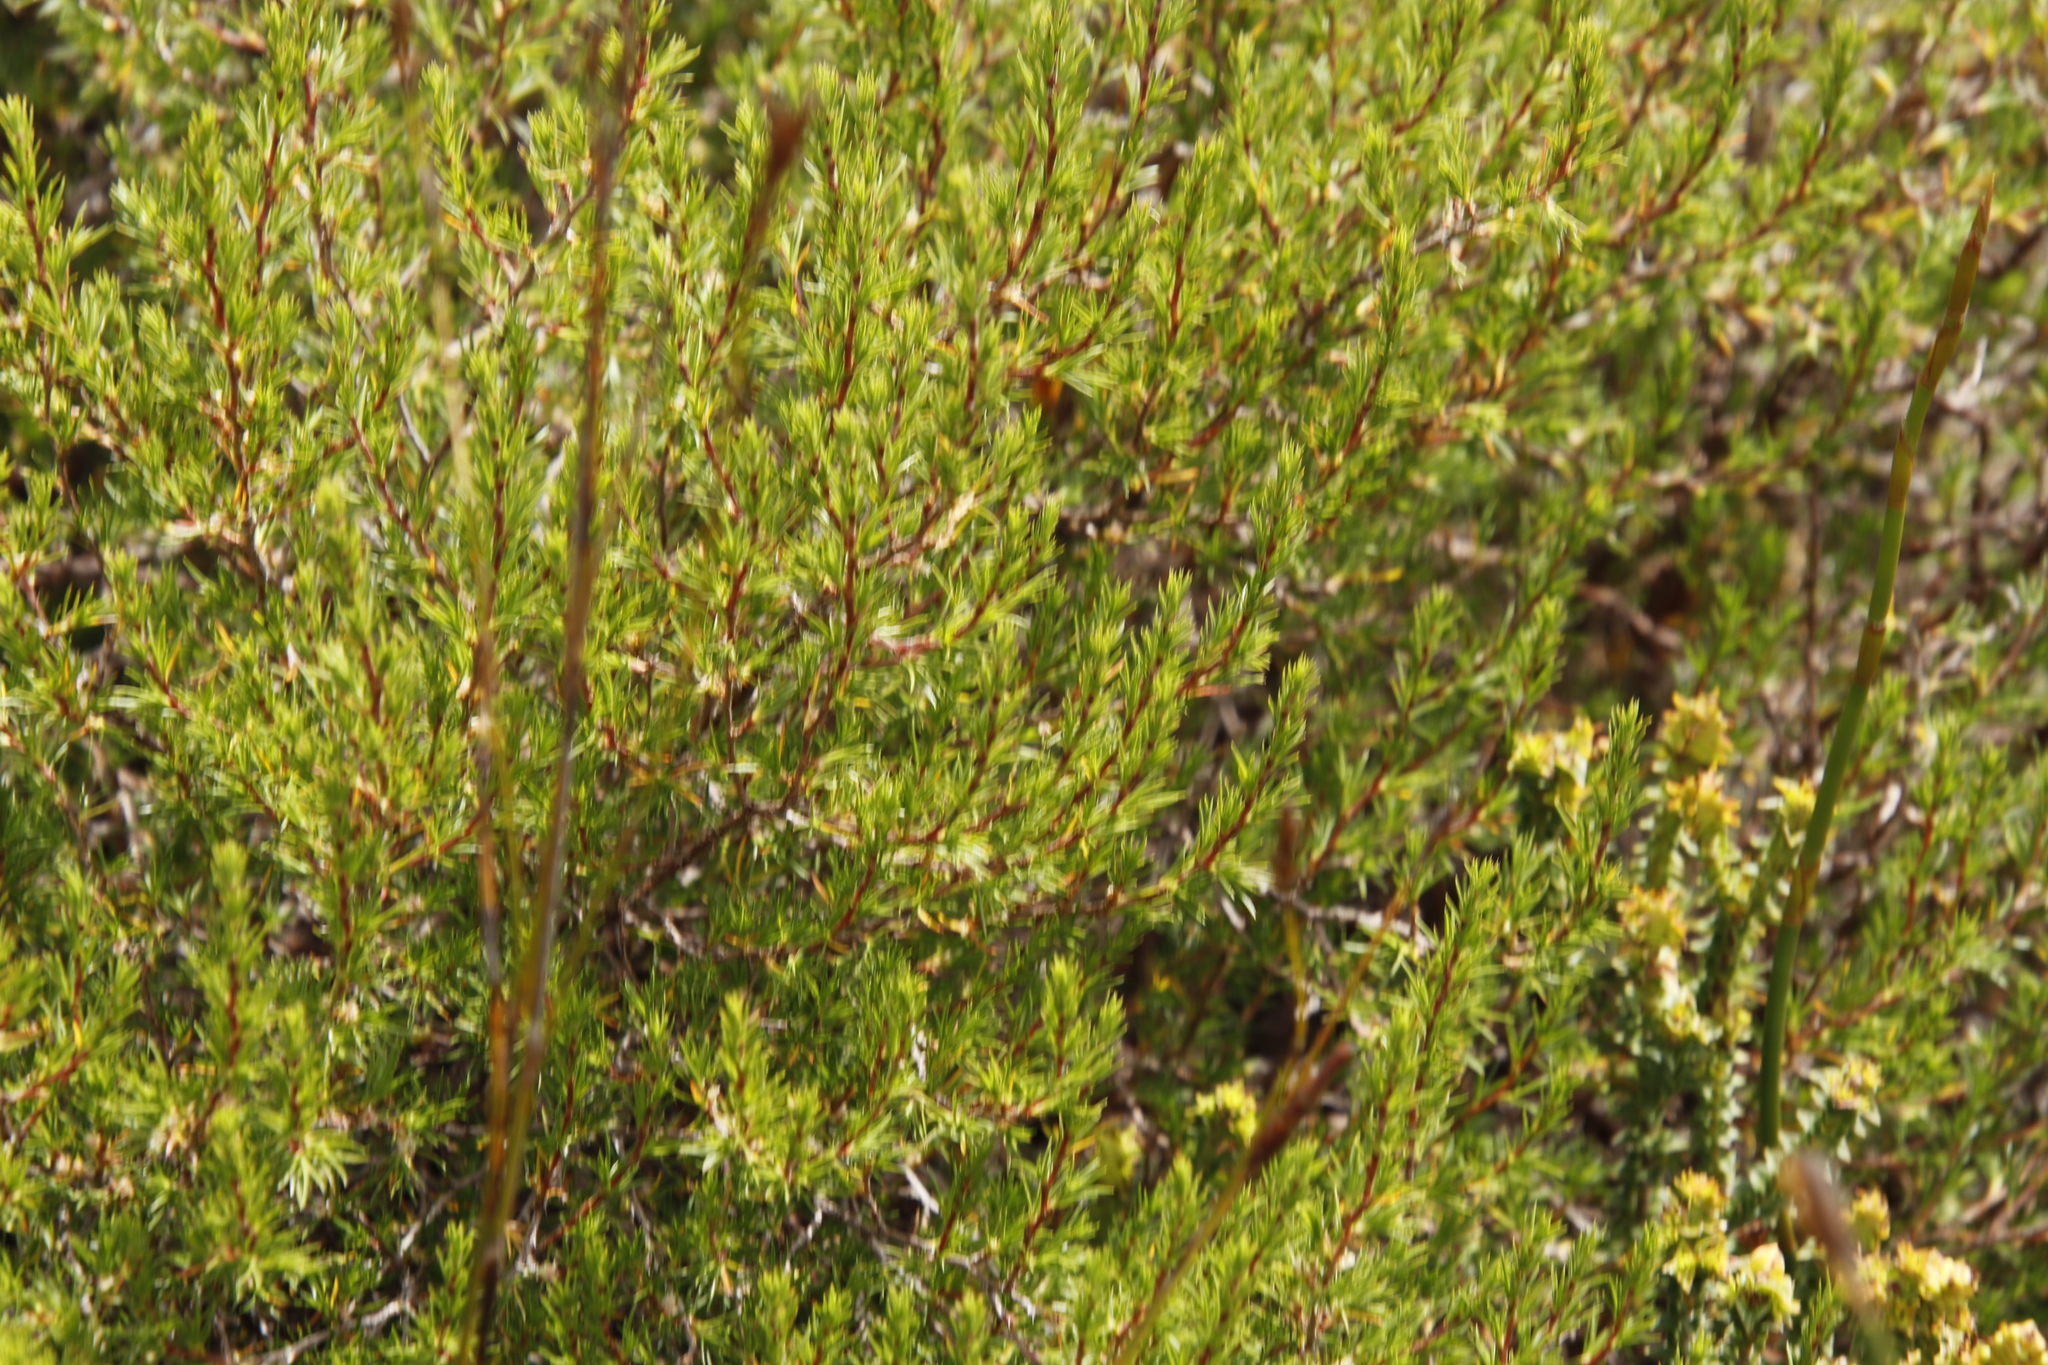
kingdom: Plantae
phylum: Tracheophyta
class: Magnoliopsida
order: Rosales
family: Rosaceae
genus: Cliffortia
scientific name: Cliffortia atrata
